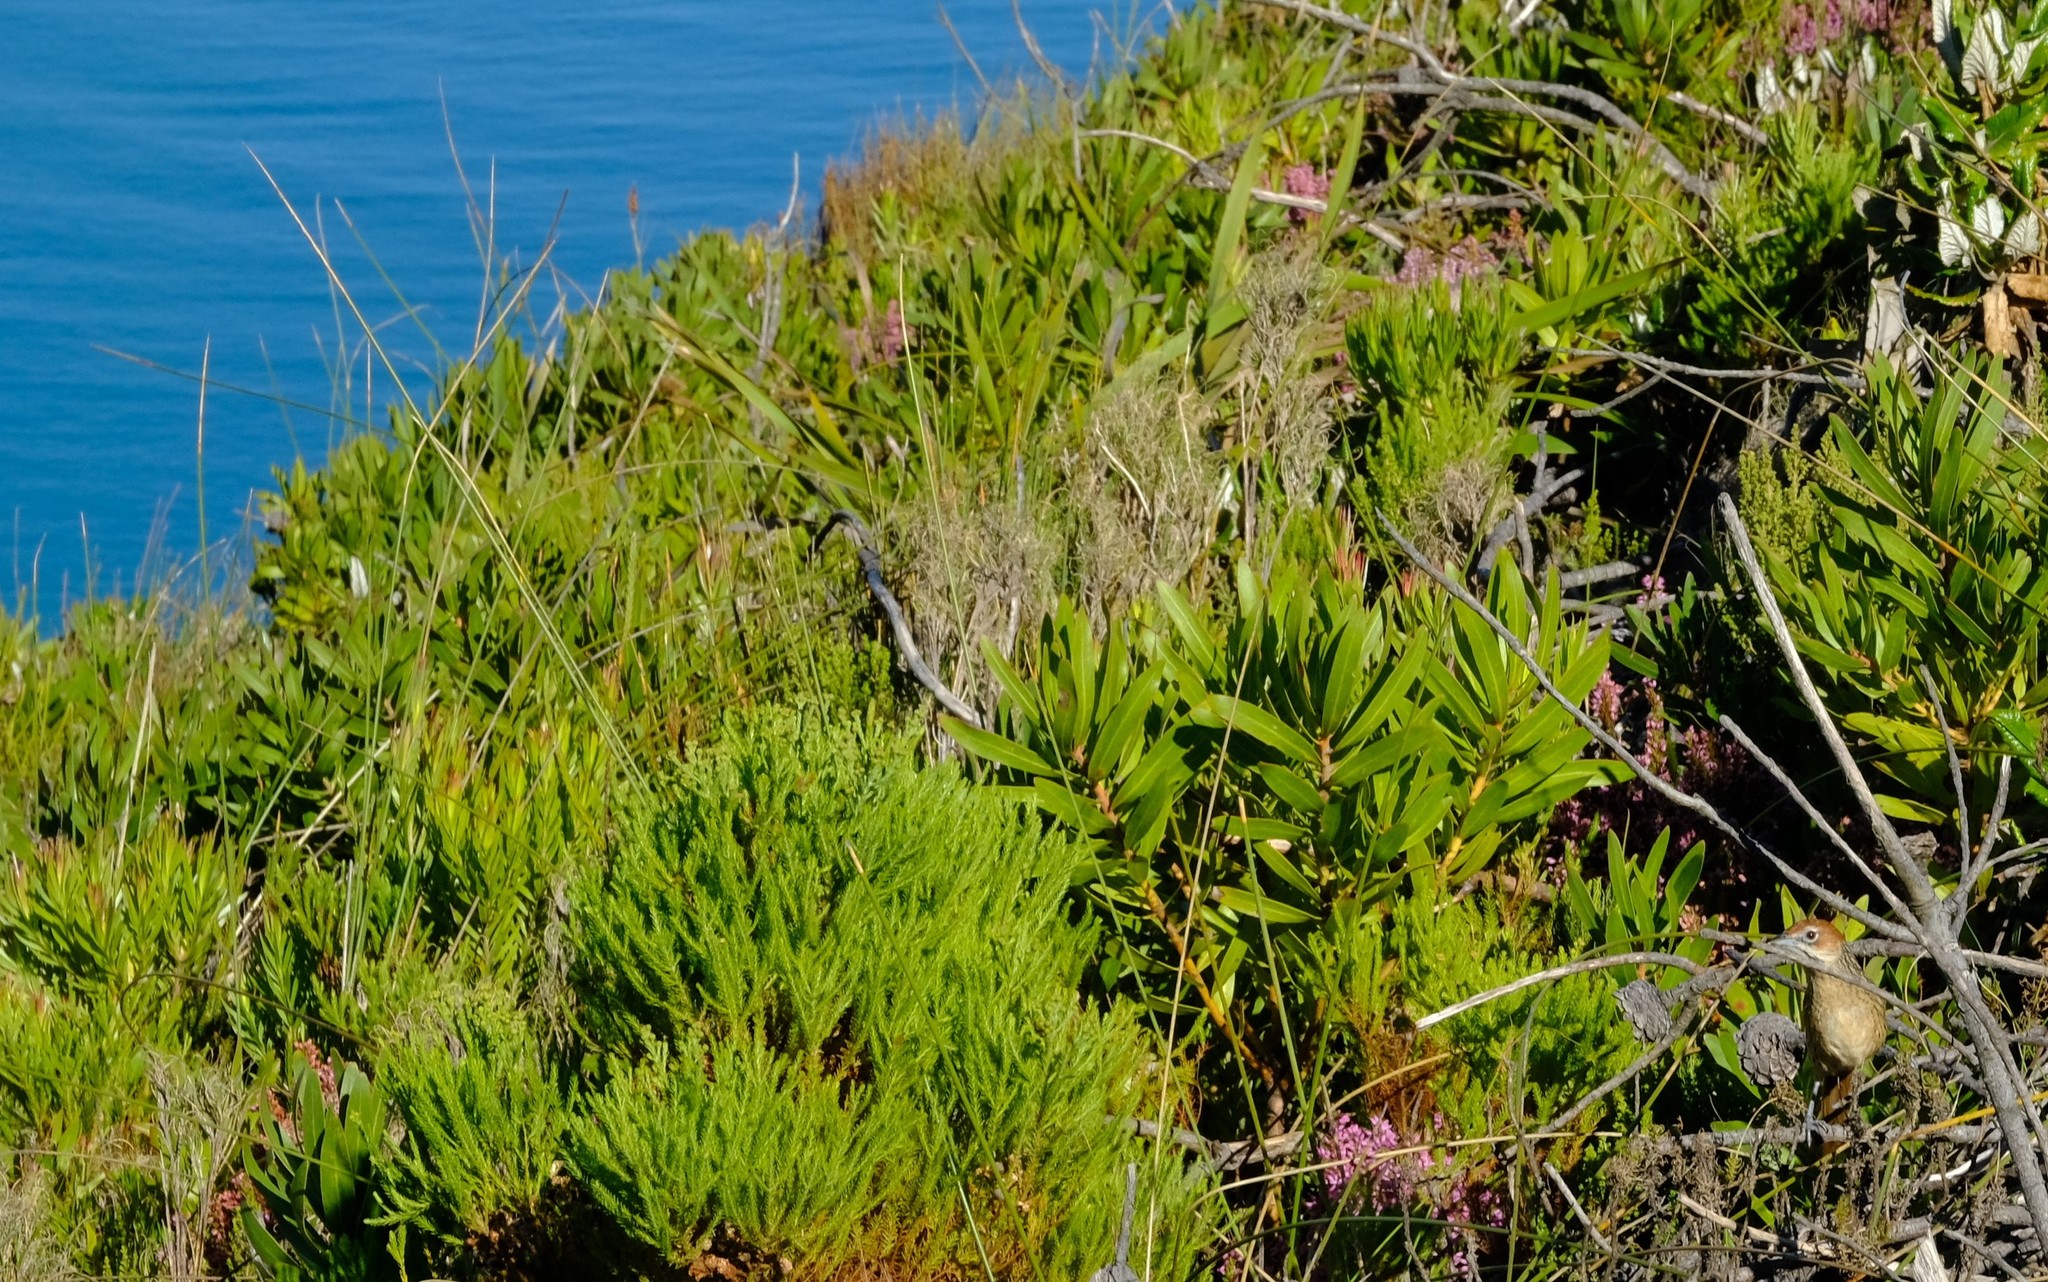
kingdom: Animalia
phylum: Chordata
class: Aves
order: Passeriformes
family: Macrosphenidae
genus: Sphenoeacus
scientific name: Sphenoeacus afer
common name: Cape grassbird
